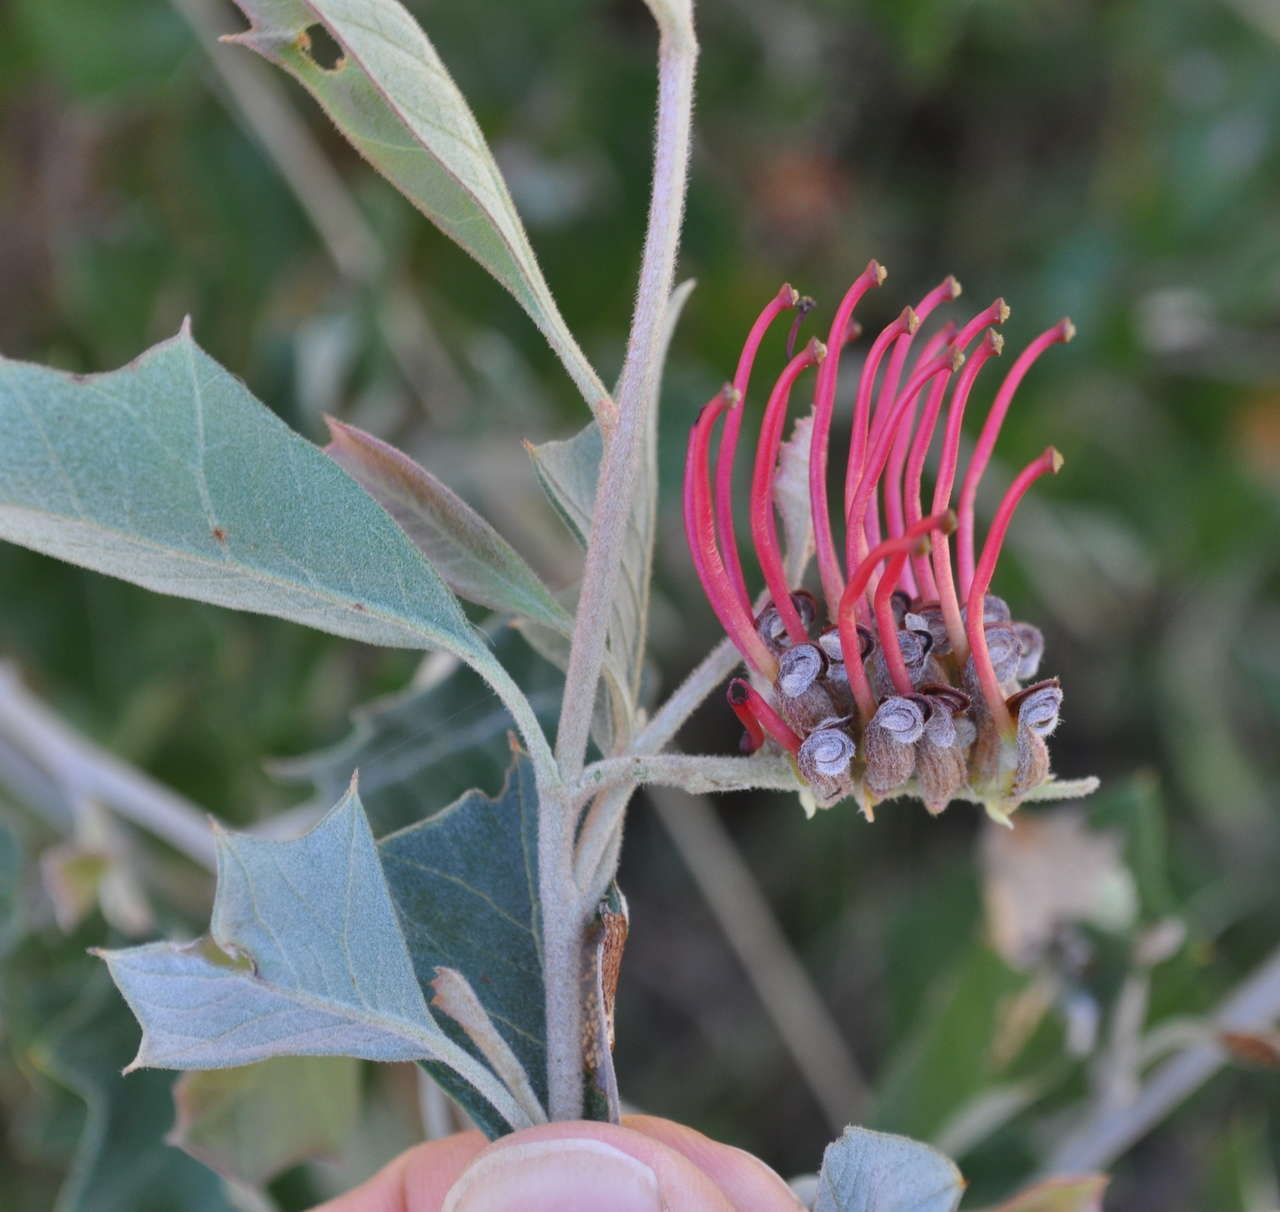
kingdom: Plantae
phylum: Tracheophyta
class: Magnoliopsida
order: Proteales
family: Proteaceae
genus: Grevillea
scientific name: Grevillea aquifolium
